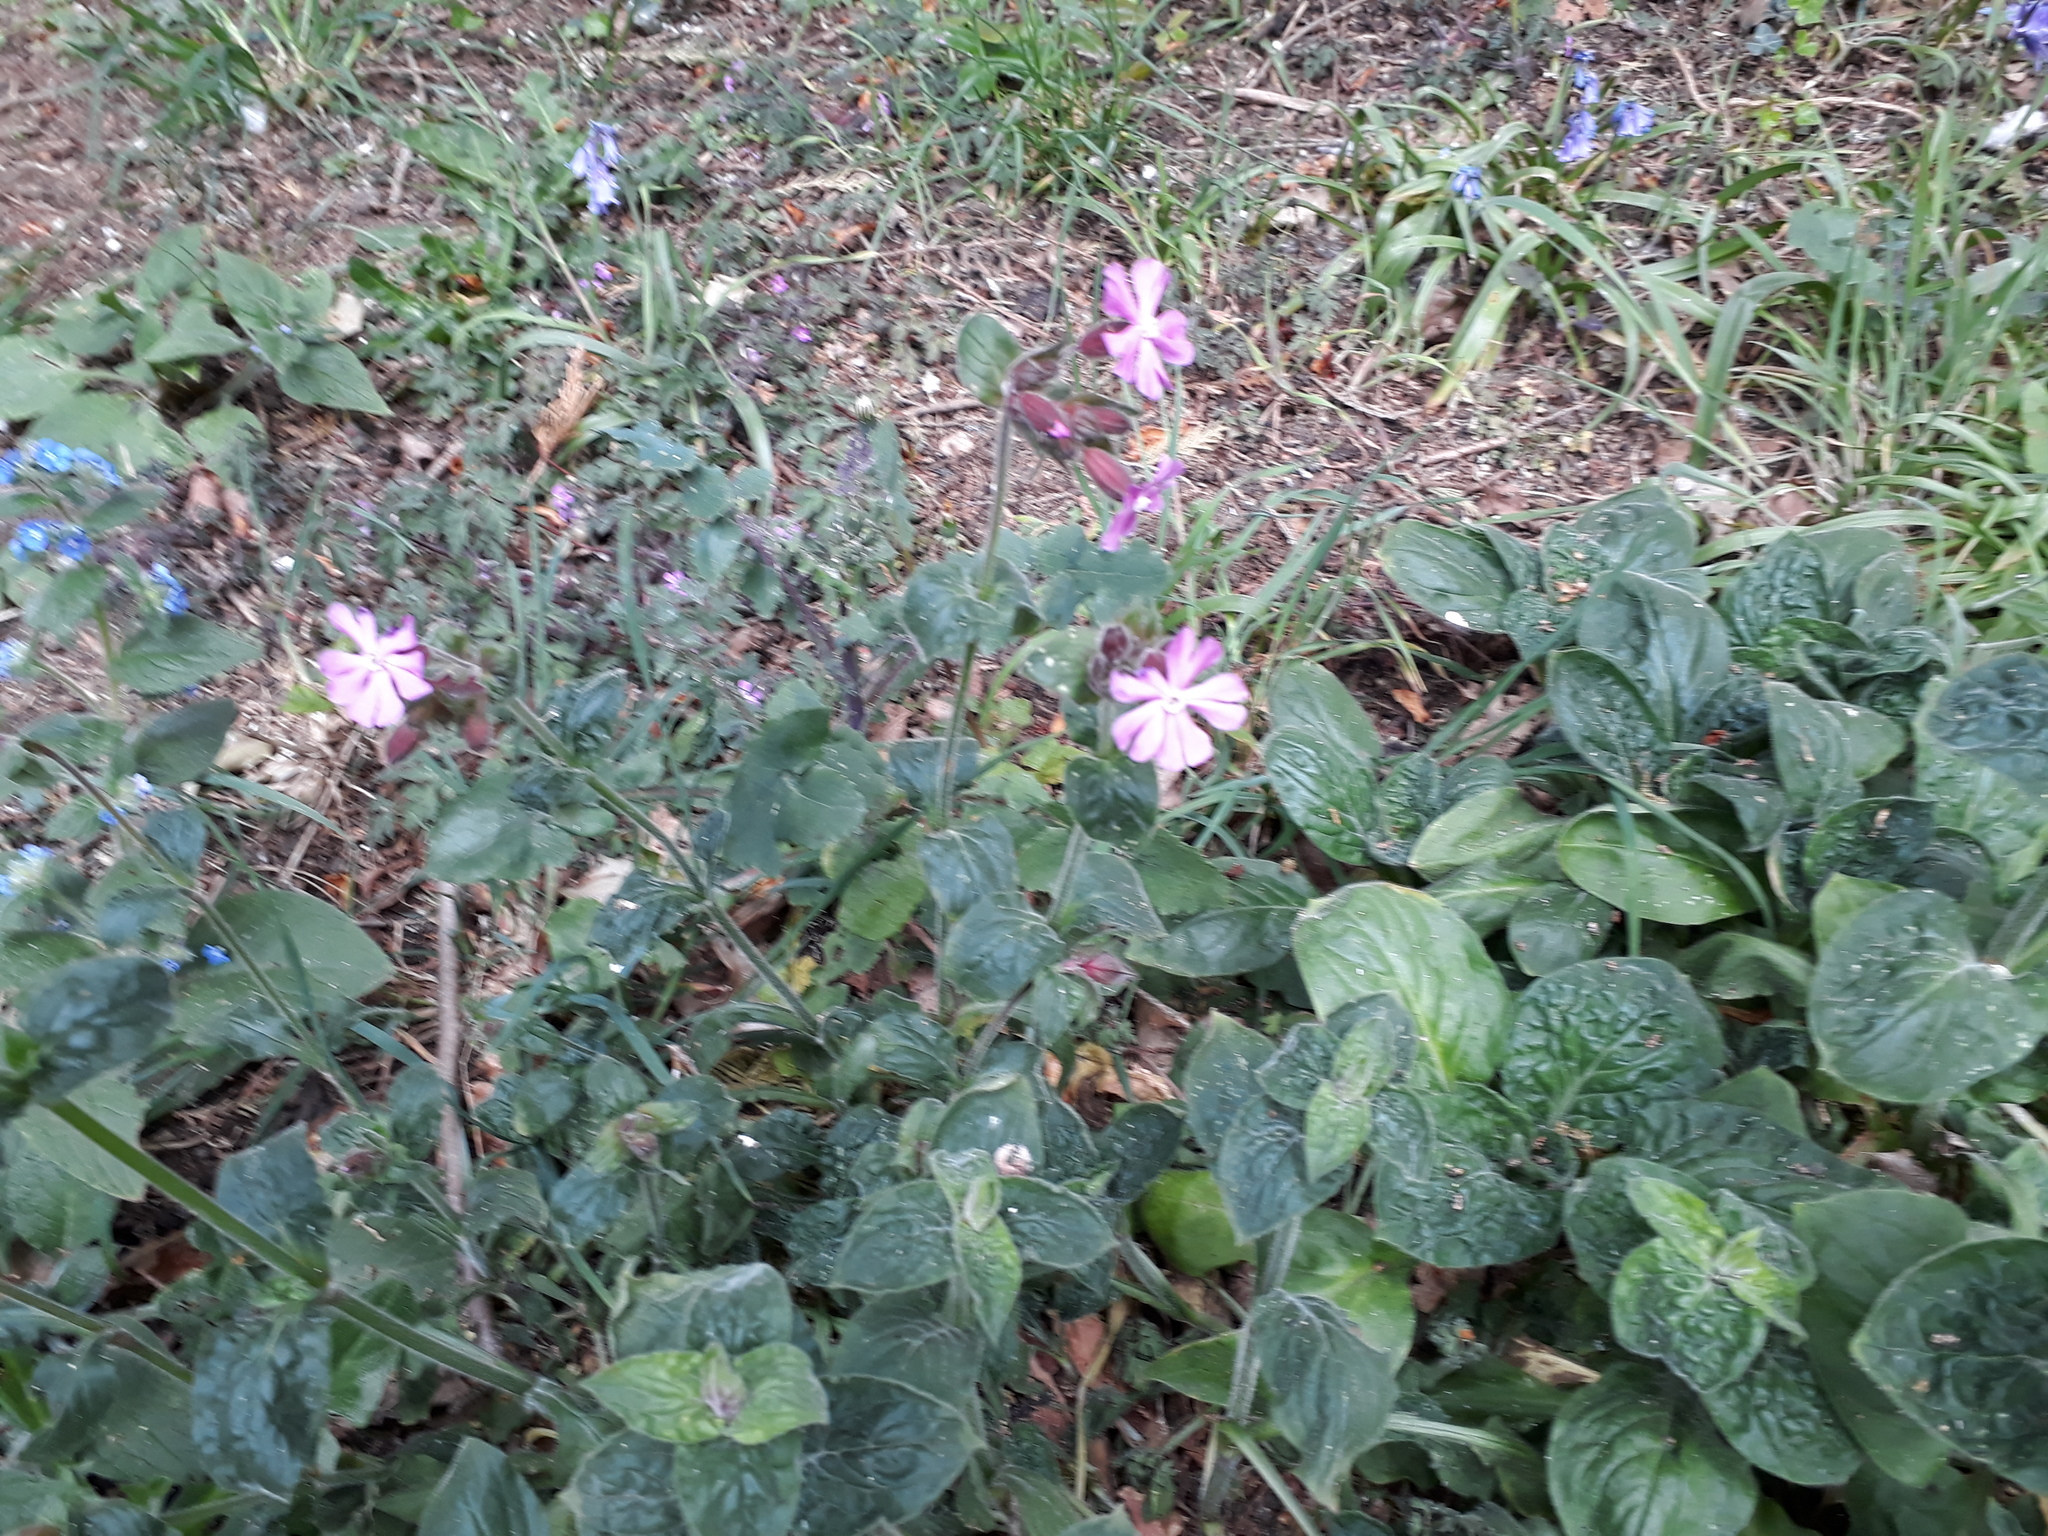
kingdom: Plantae
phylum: Tracheophyta
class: Magnoliopsida
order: Caryophyllales
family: Caryophyllaceae
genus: Silene
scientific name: Silene dioica
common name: Red campion
